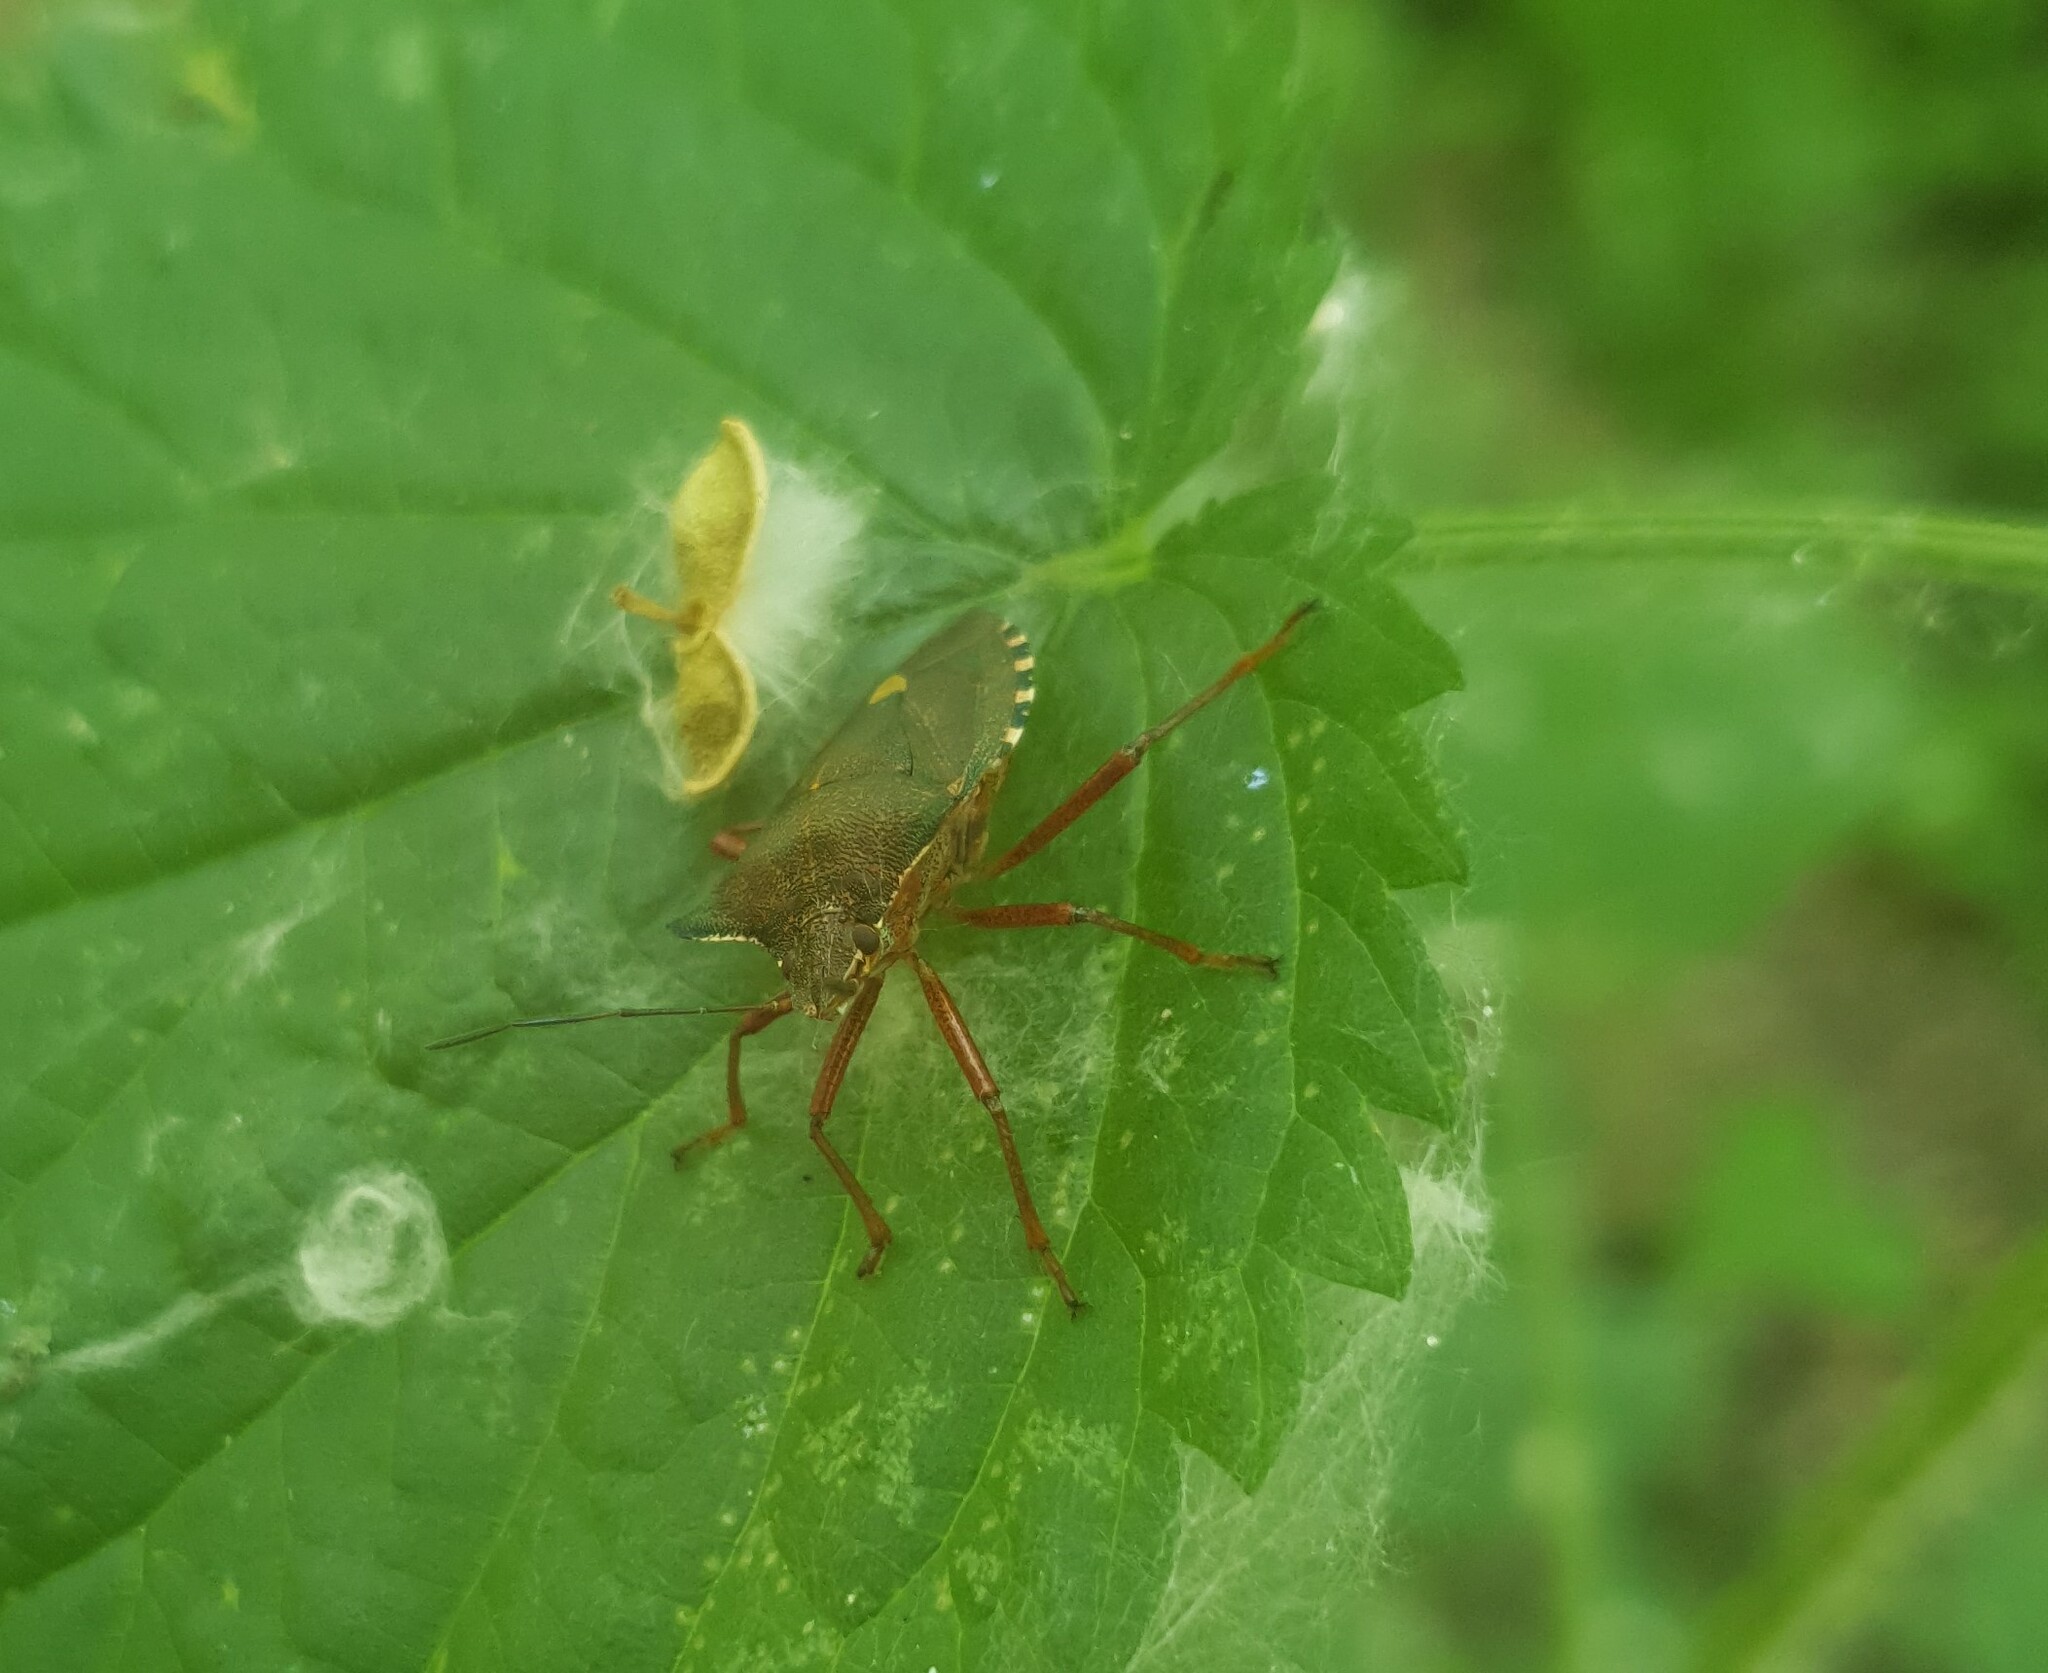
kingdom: Animalia
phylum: Arthropoda
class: Insecta
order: Hemiptera
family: Pentatomidae
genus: Pentatoma
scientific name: Pentatoma rufipes
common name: Forest bug
